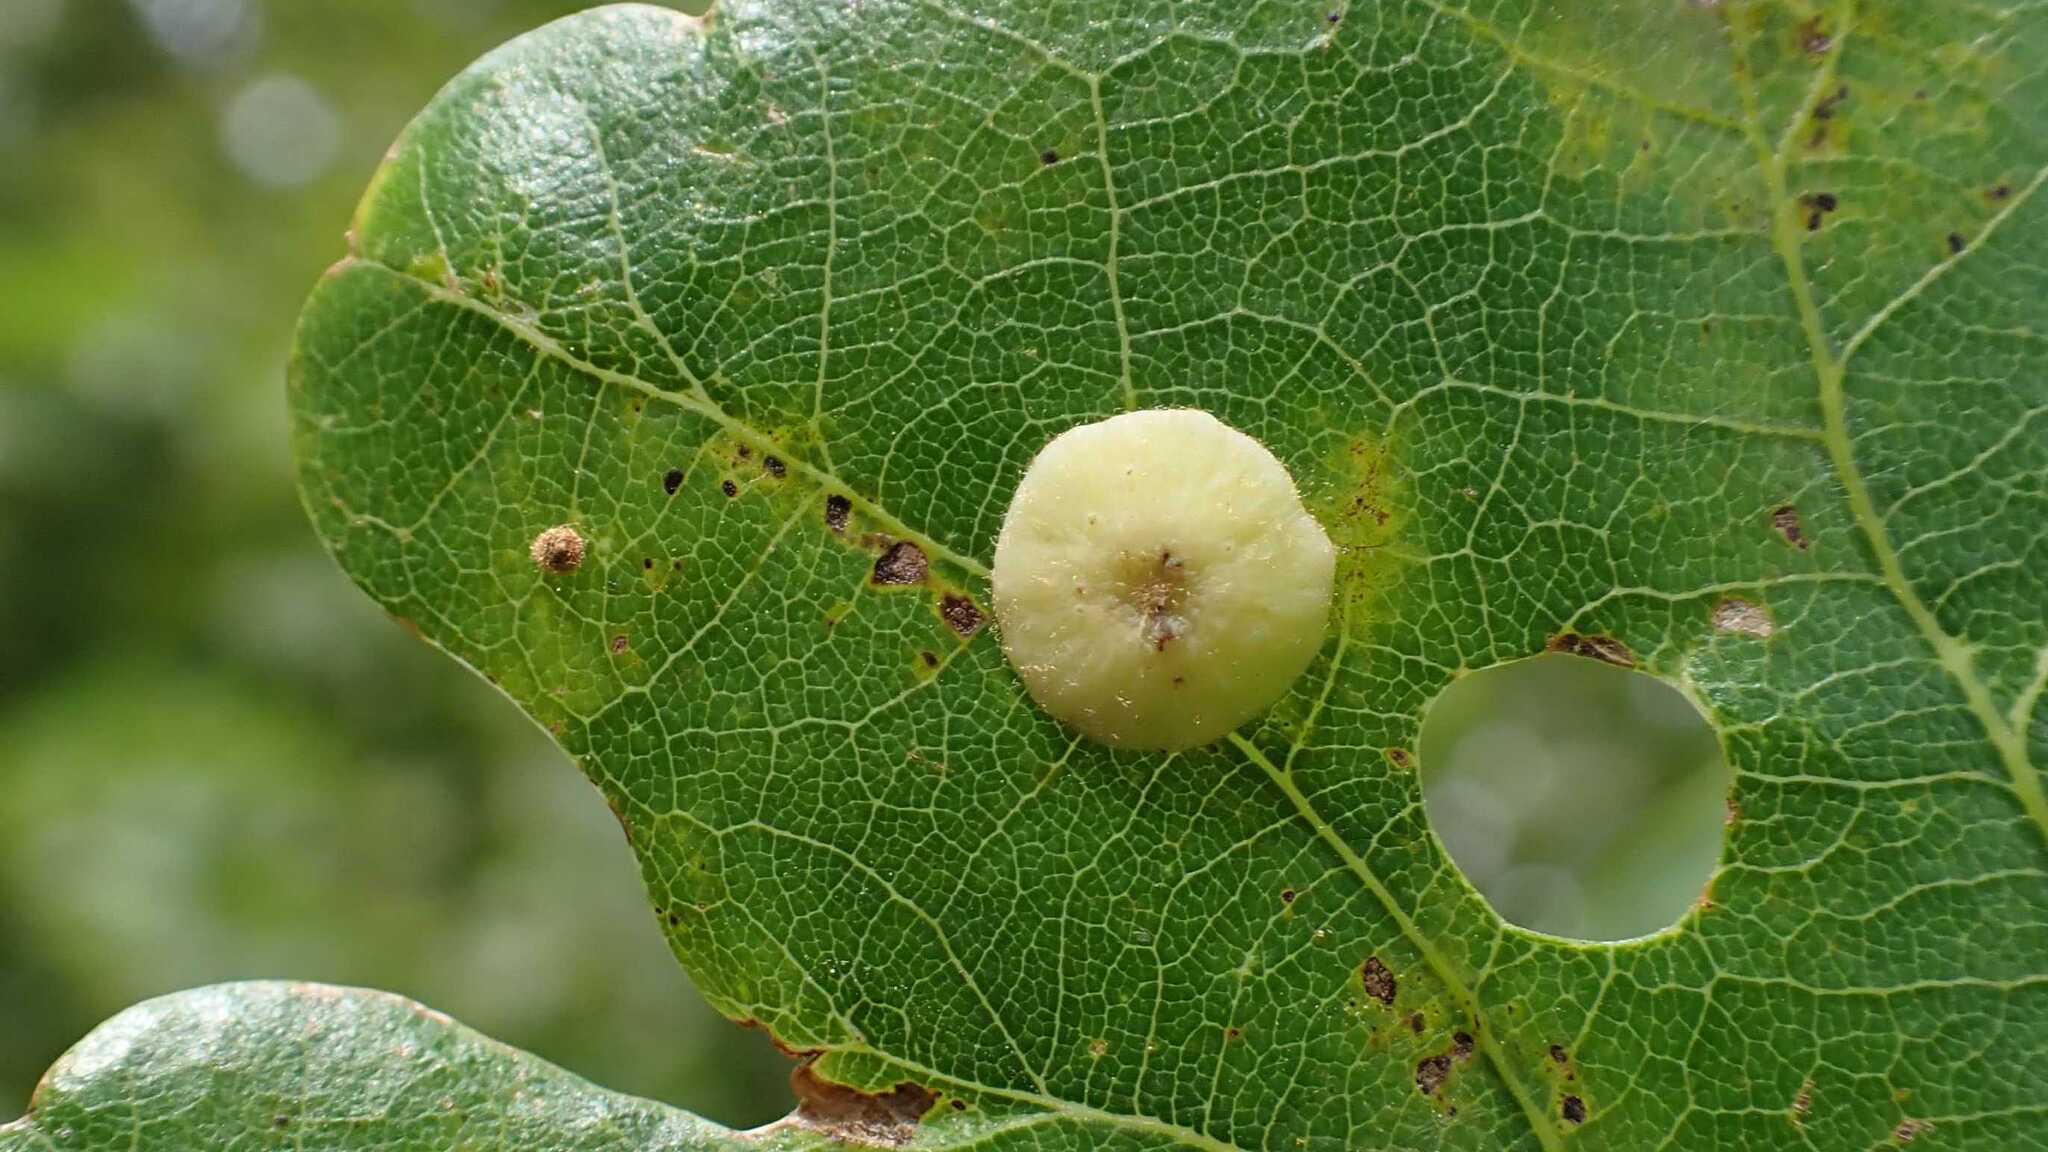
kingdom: Animalia
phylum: Arthropoda
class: Insecta
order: Hymenoptera
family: Cynipidae
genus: Neuroterus
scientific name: Neuroterus albipes
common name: Smooth spangle gall
